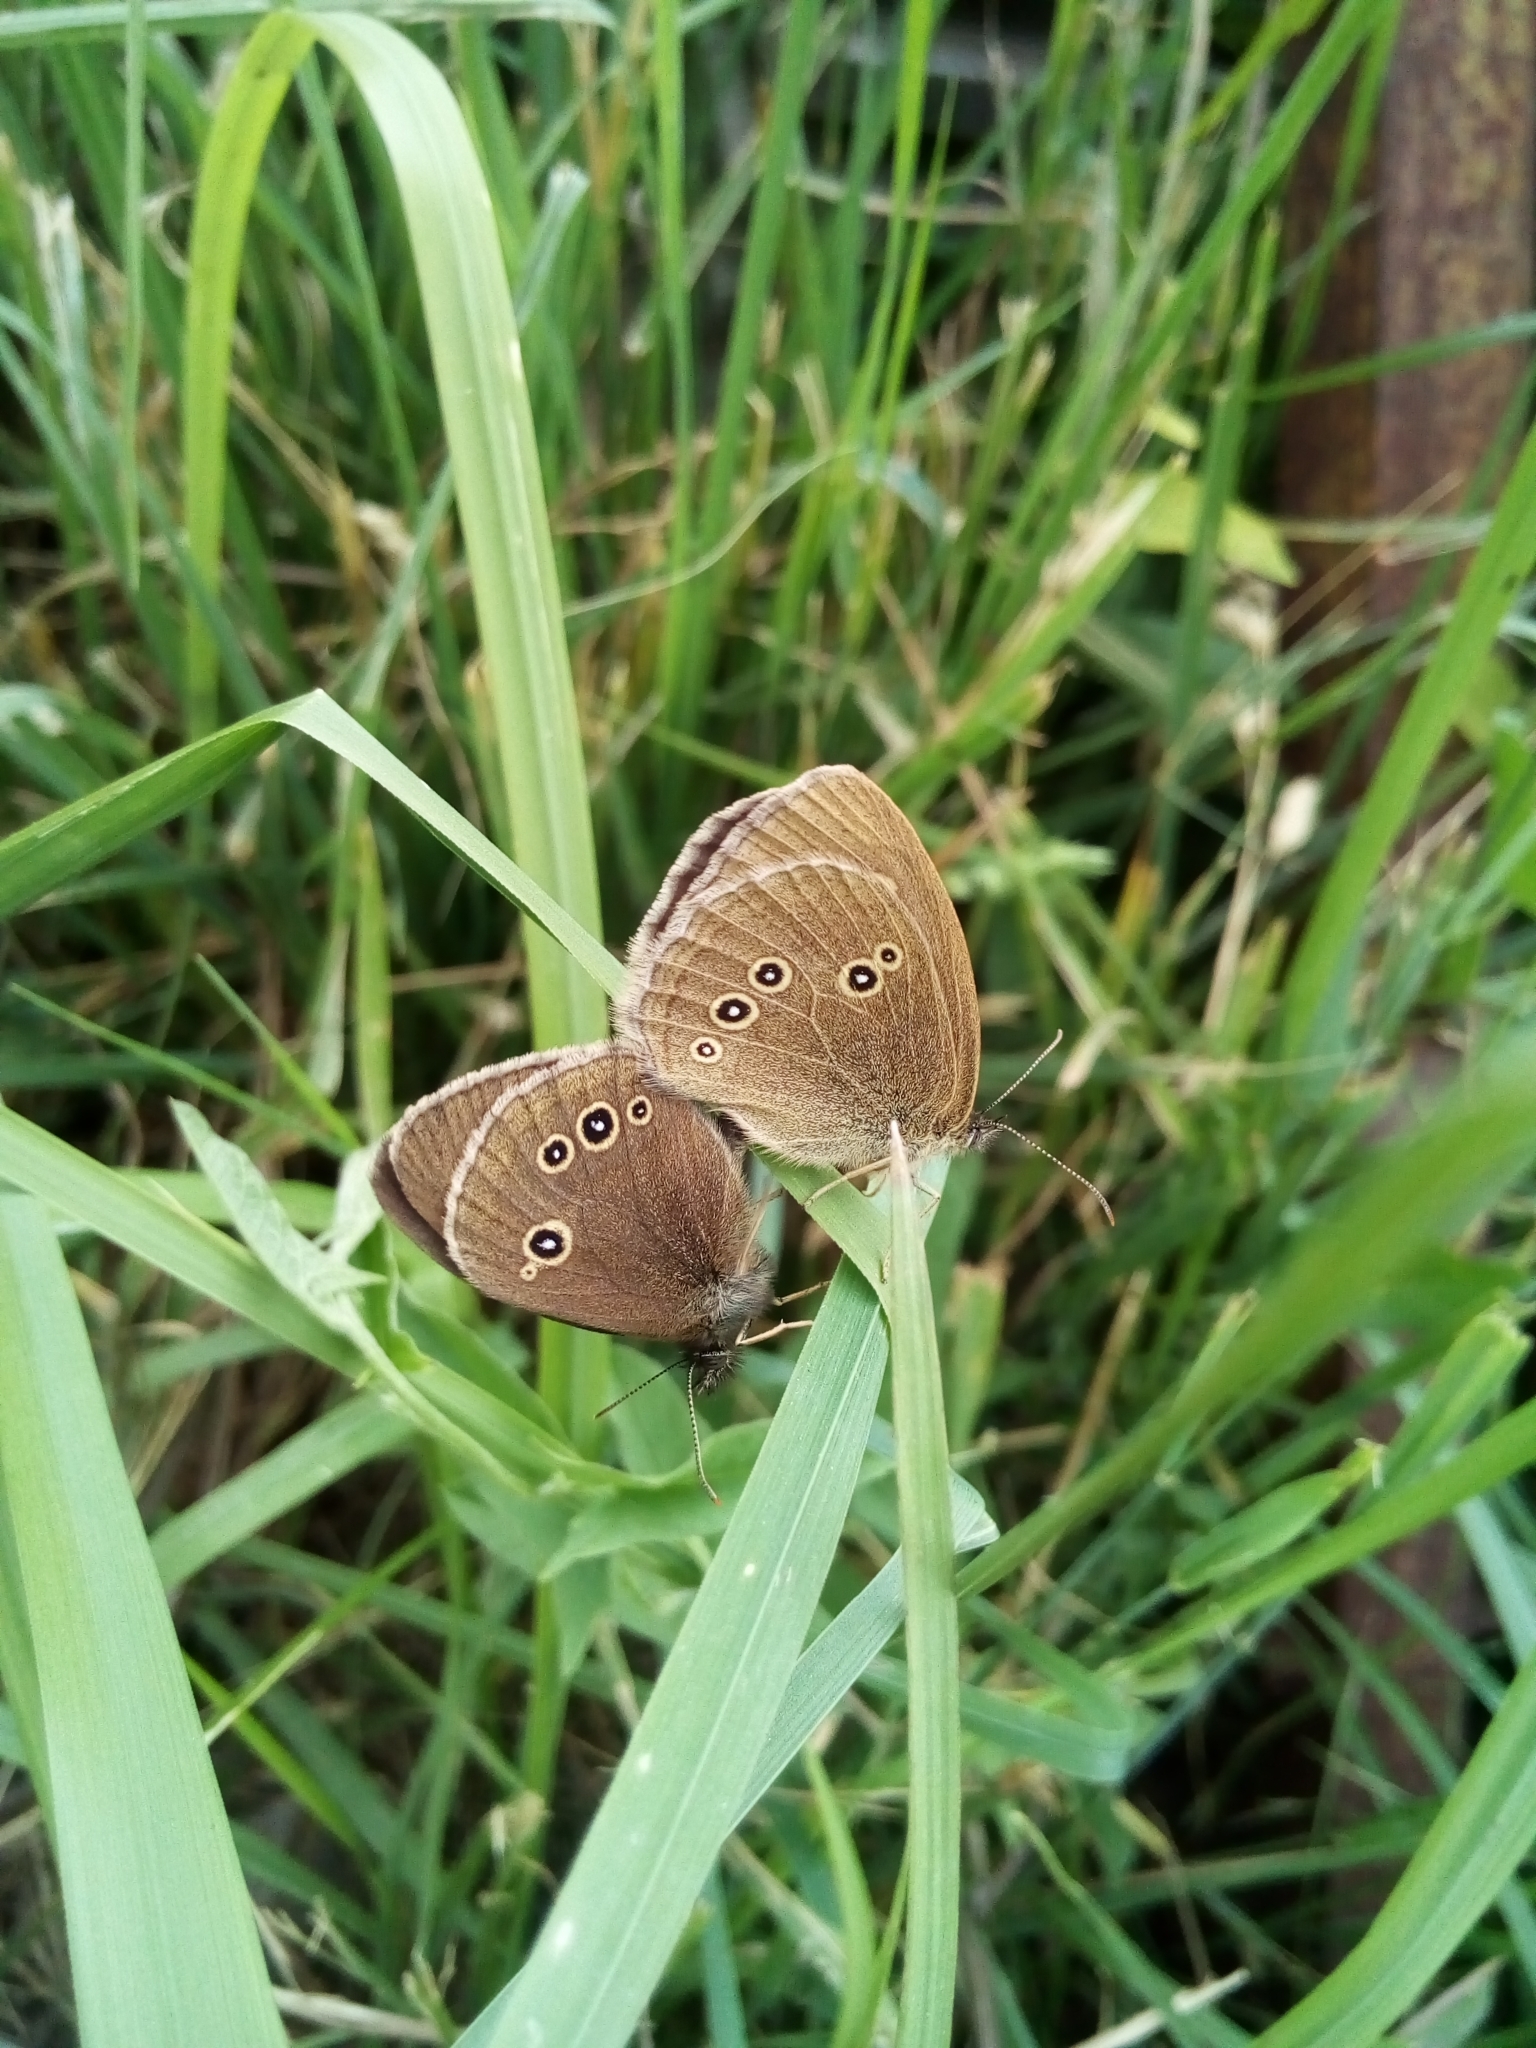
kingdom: Animalia
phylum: Arthropoda
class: Insecta
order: Lepidoptera
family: Nymphalidae
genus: Aphantopus
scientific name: Aphantopus hyperantus
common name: Ringlet
